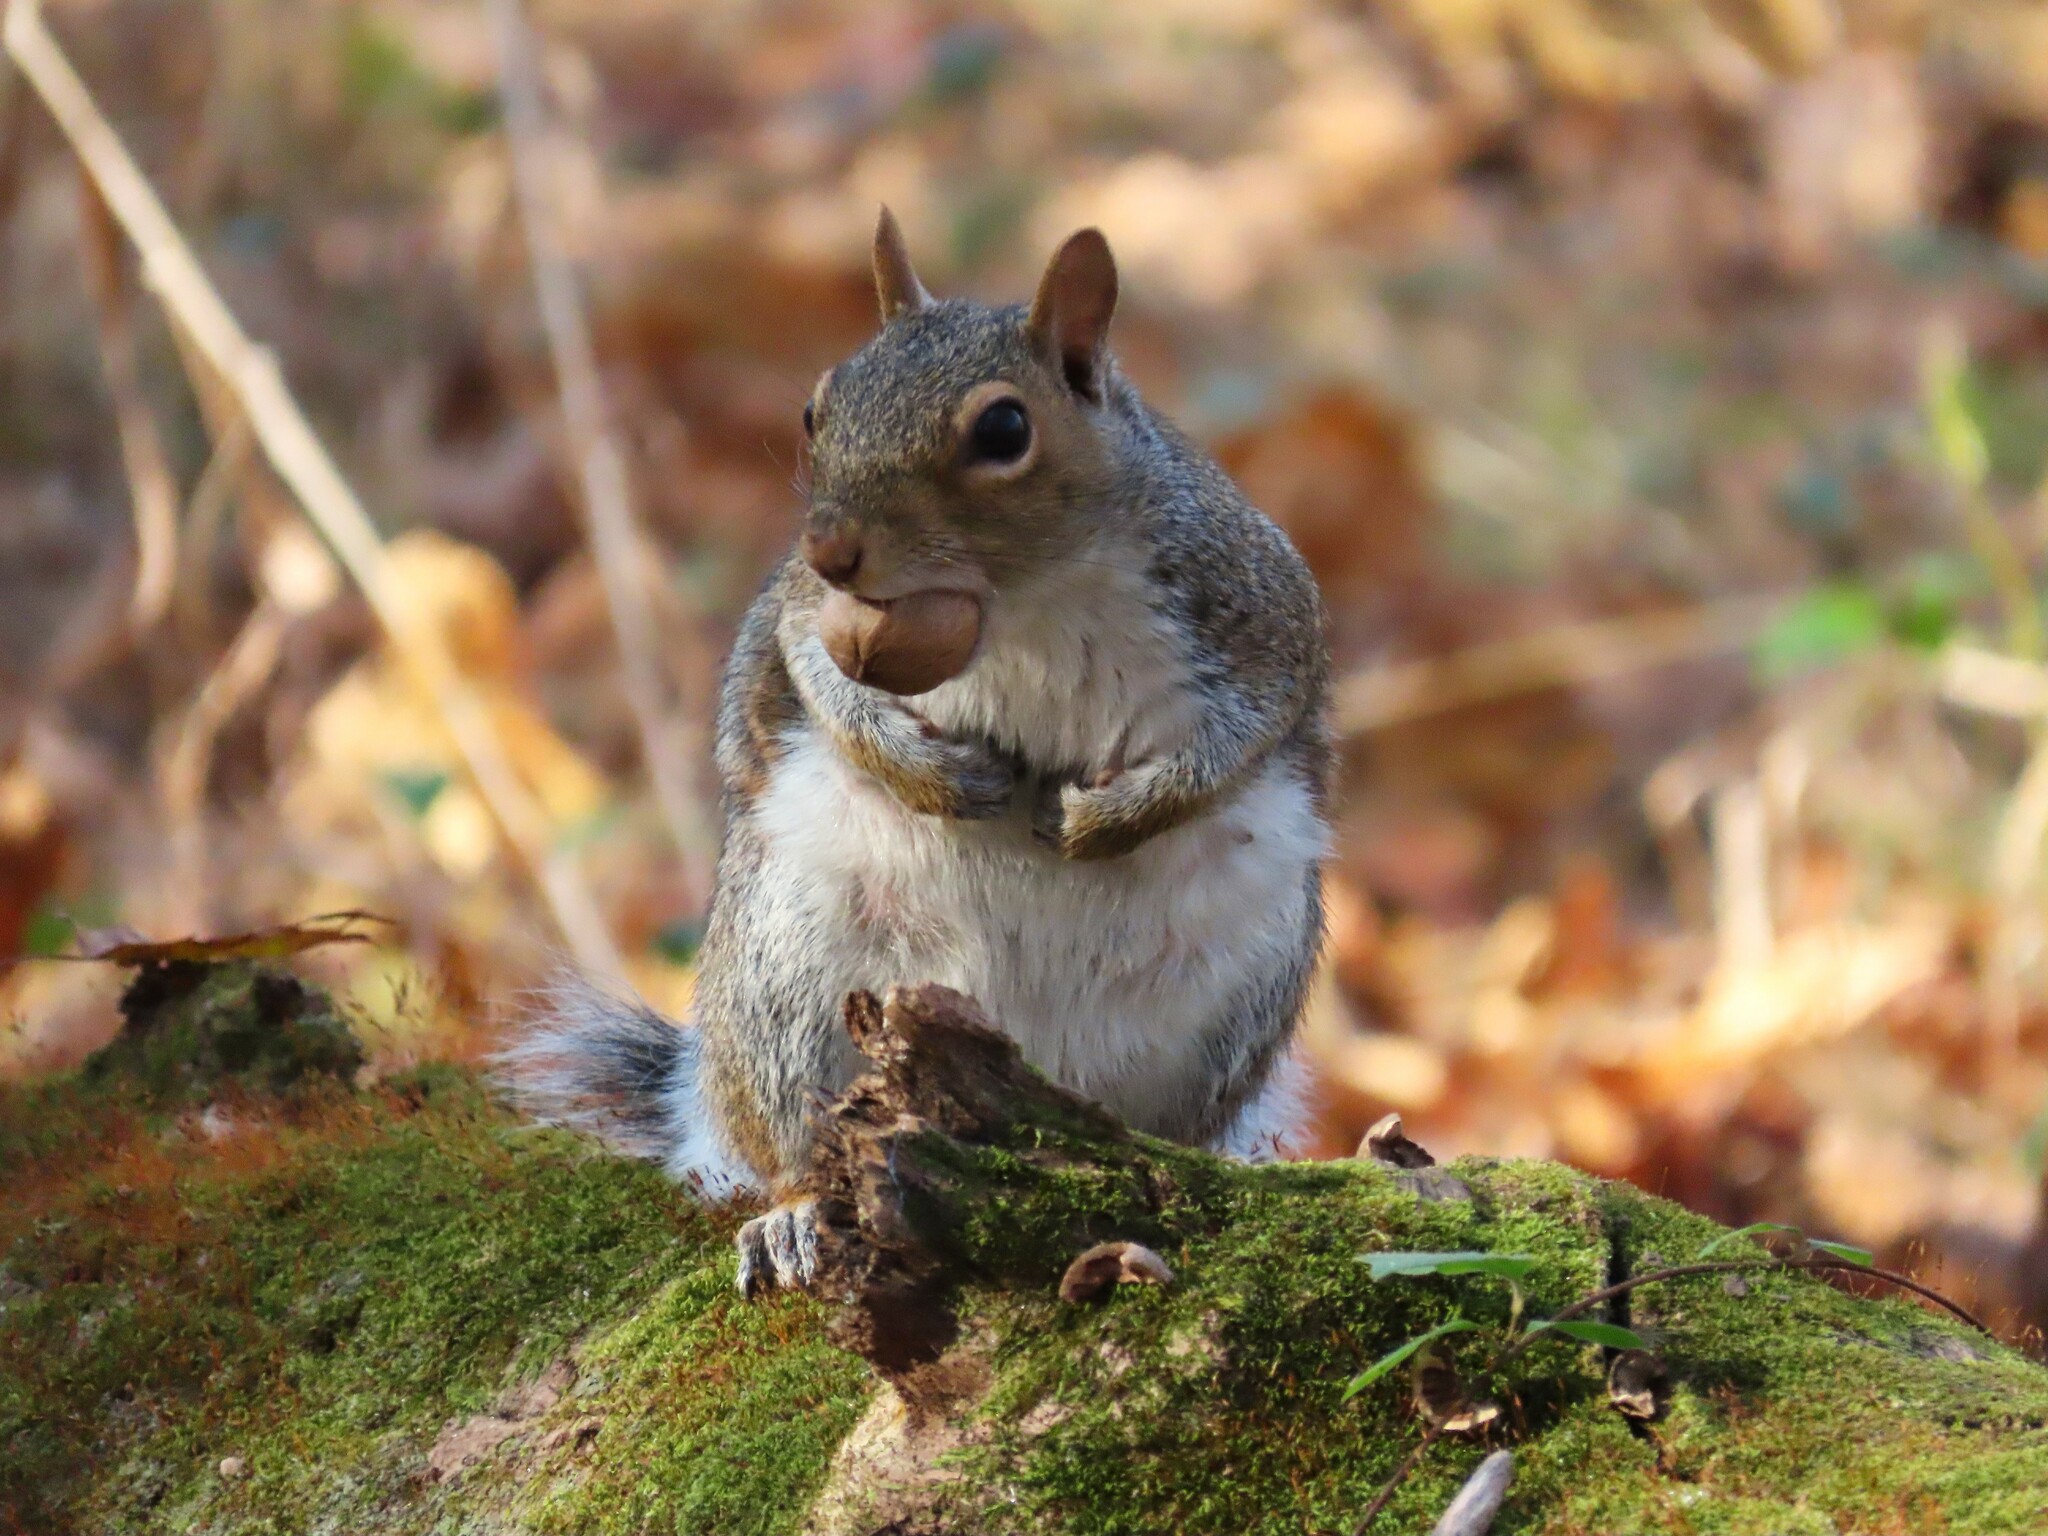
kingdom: Animalia
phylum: Chordata
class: Mammalia
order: Rodentia
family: Sciuridae
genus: Sciurus
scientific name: Sciurus carolinensis
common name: Eastern gray squirrel
